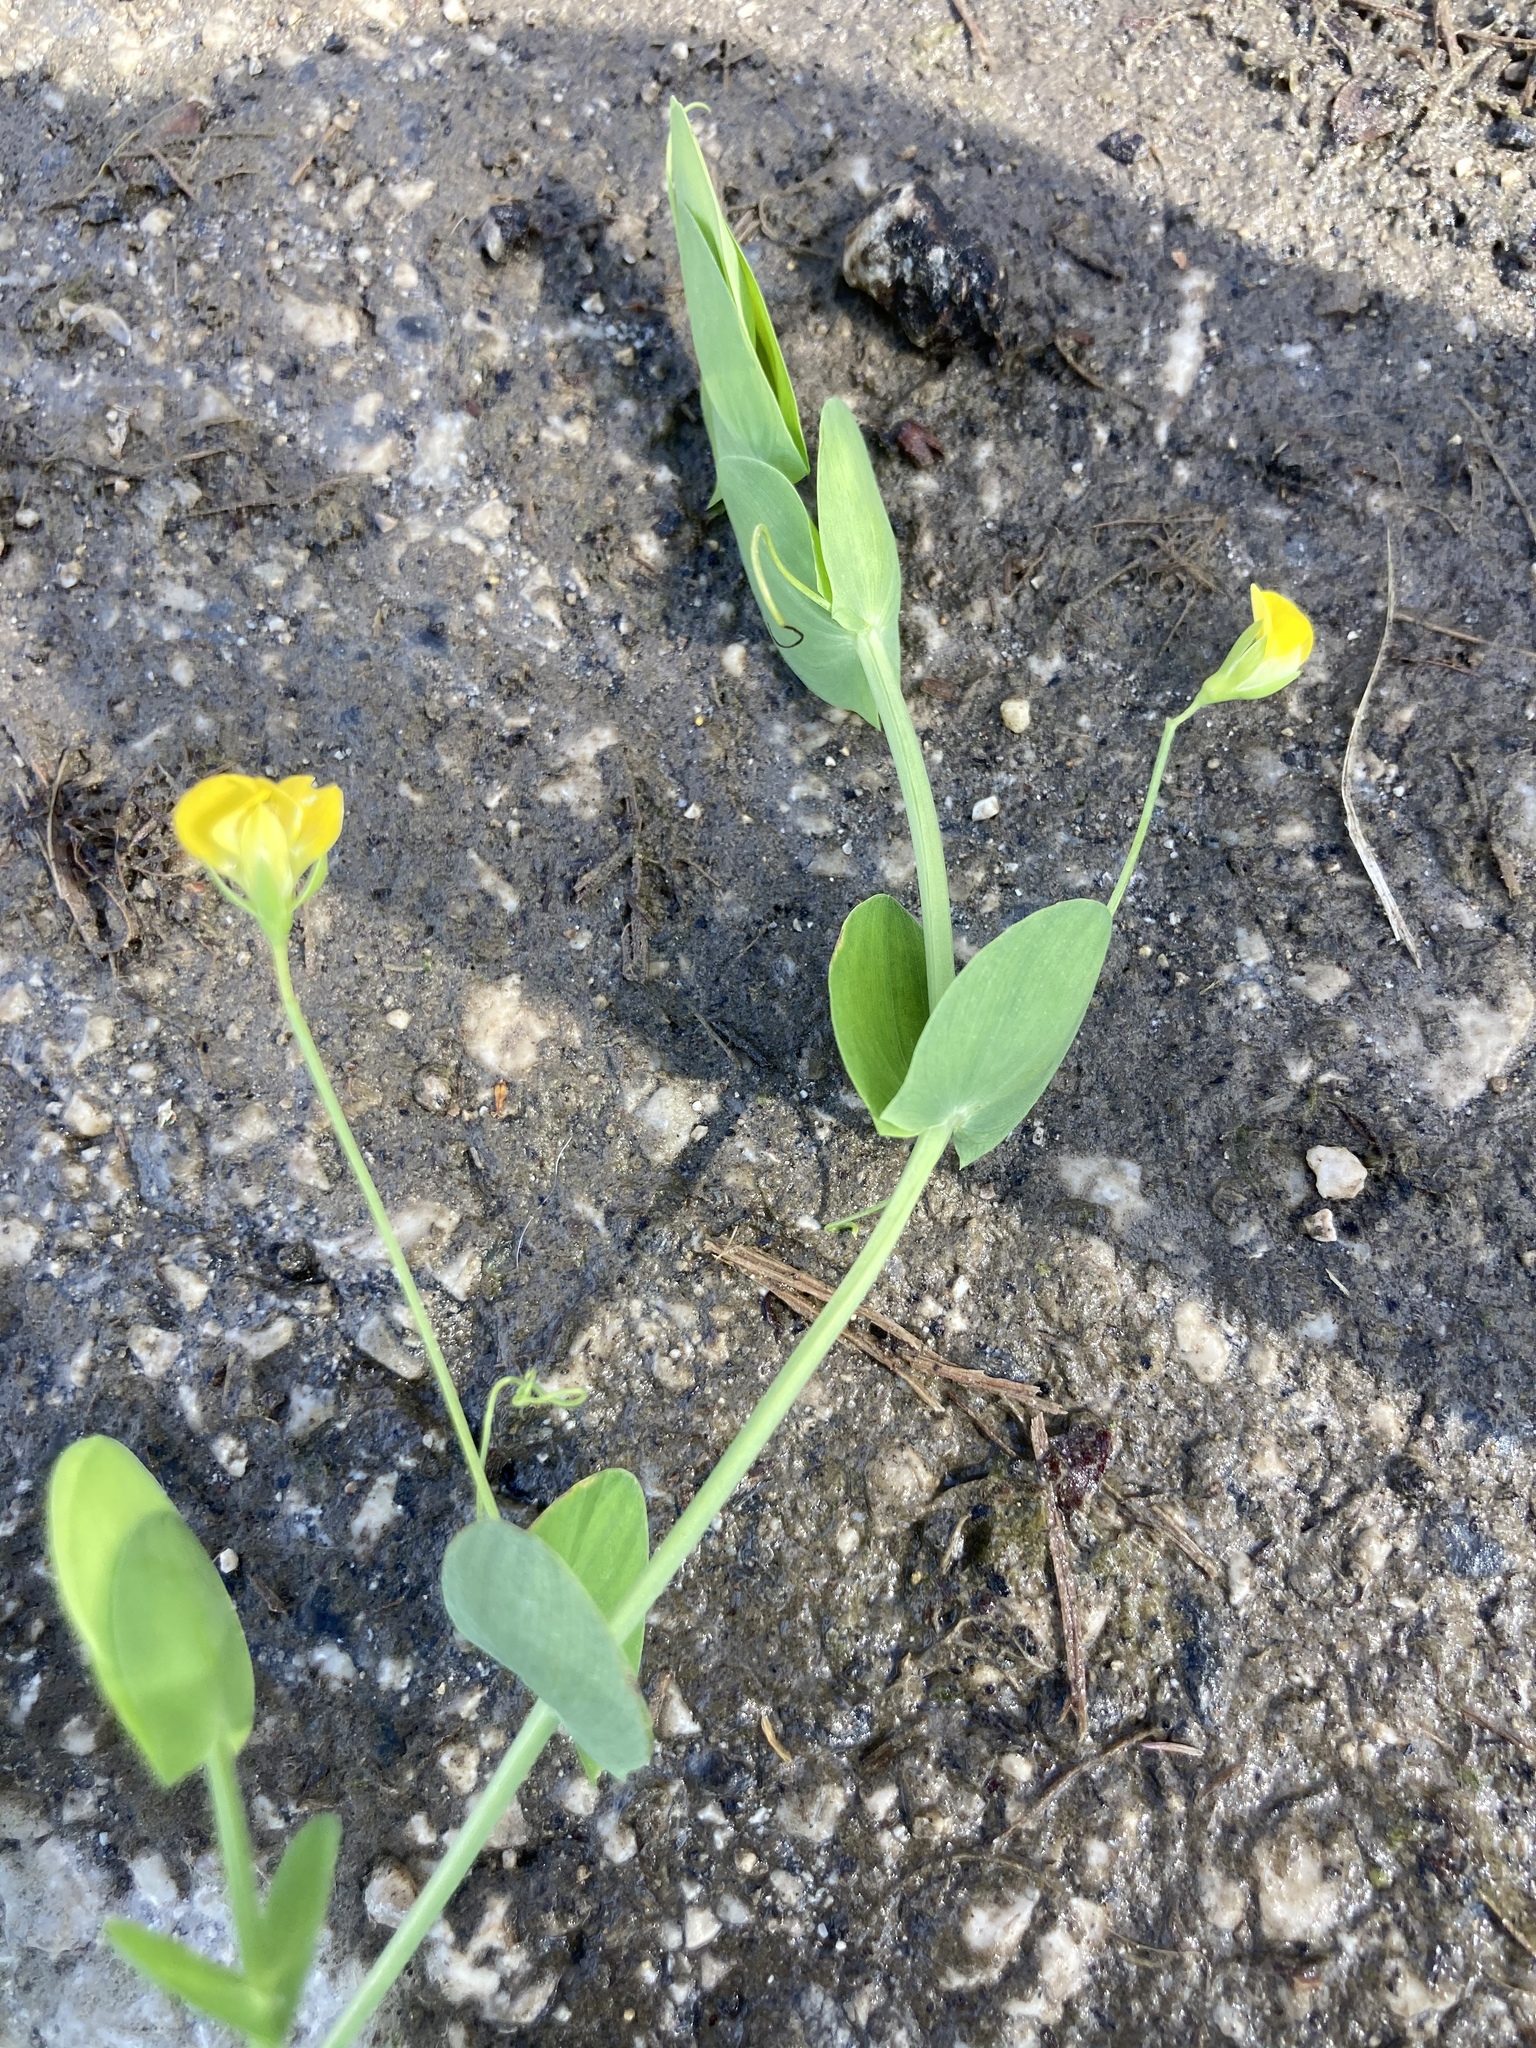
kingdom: Plantae
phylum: Tracheophyta
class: Magnoliopsida
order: Fabales
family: Fabaceae
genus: Lathyrus
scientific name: Lathyrus aphaca
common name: Yellow vetchling
